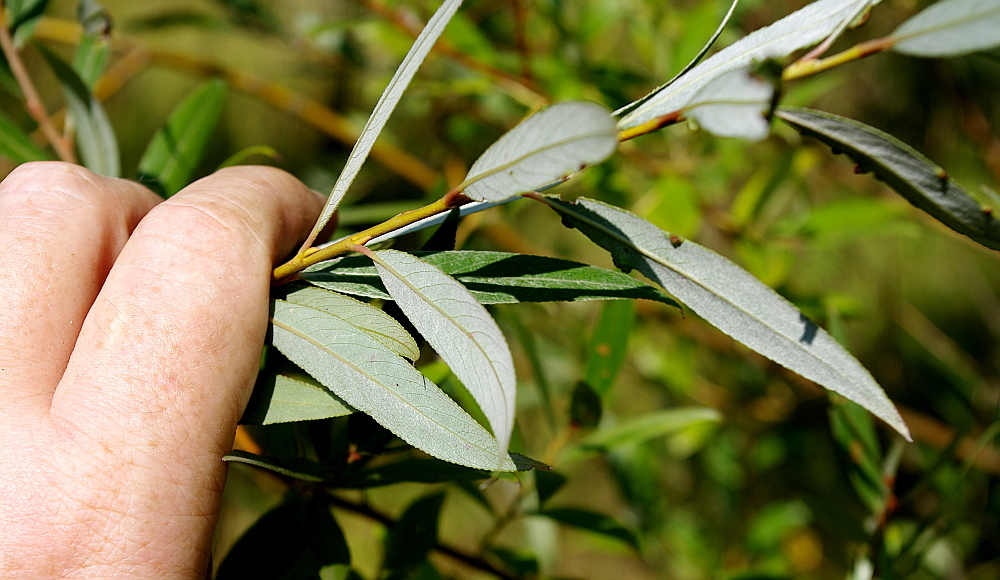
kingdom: Plantae
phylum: Tracheophyta
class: Magnoliopsida
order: Malpighiales
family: Salicaceae
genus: Salix
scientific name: Salix alba
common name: White willow
